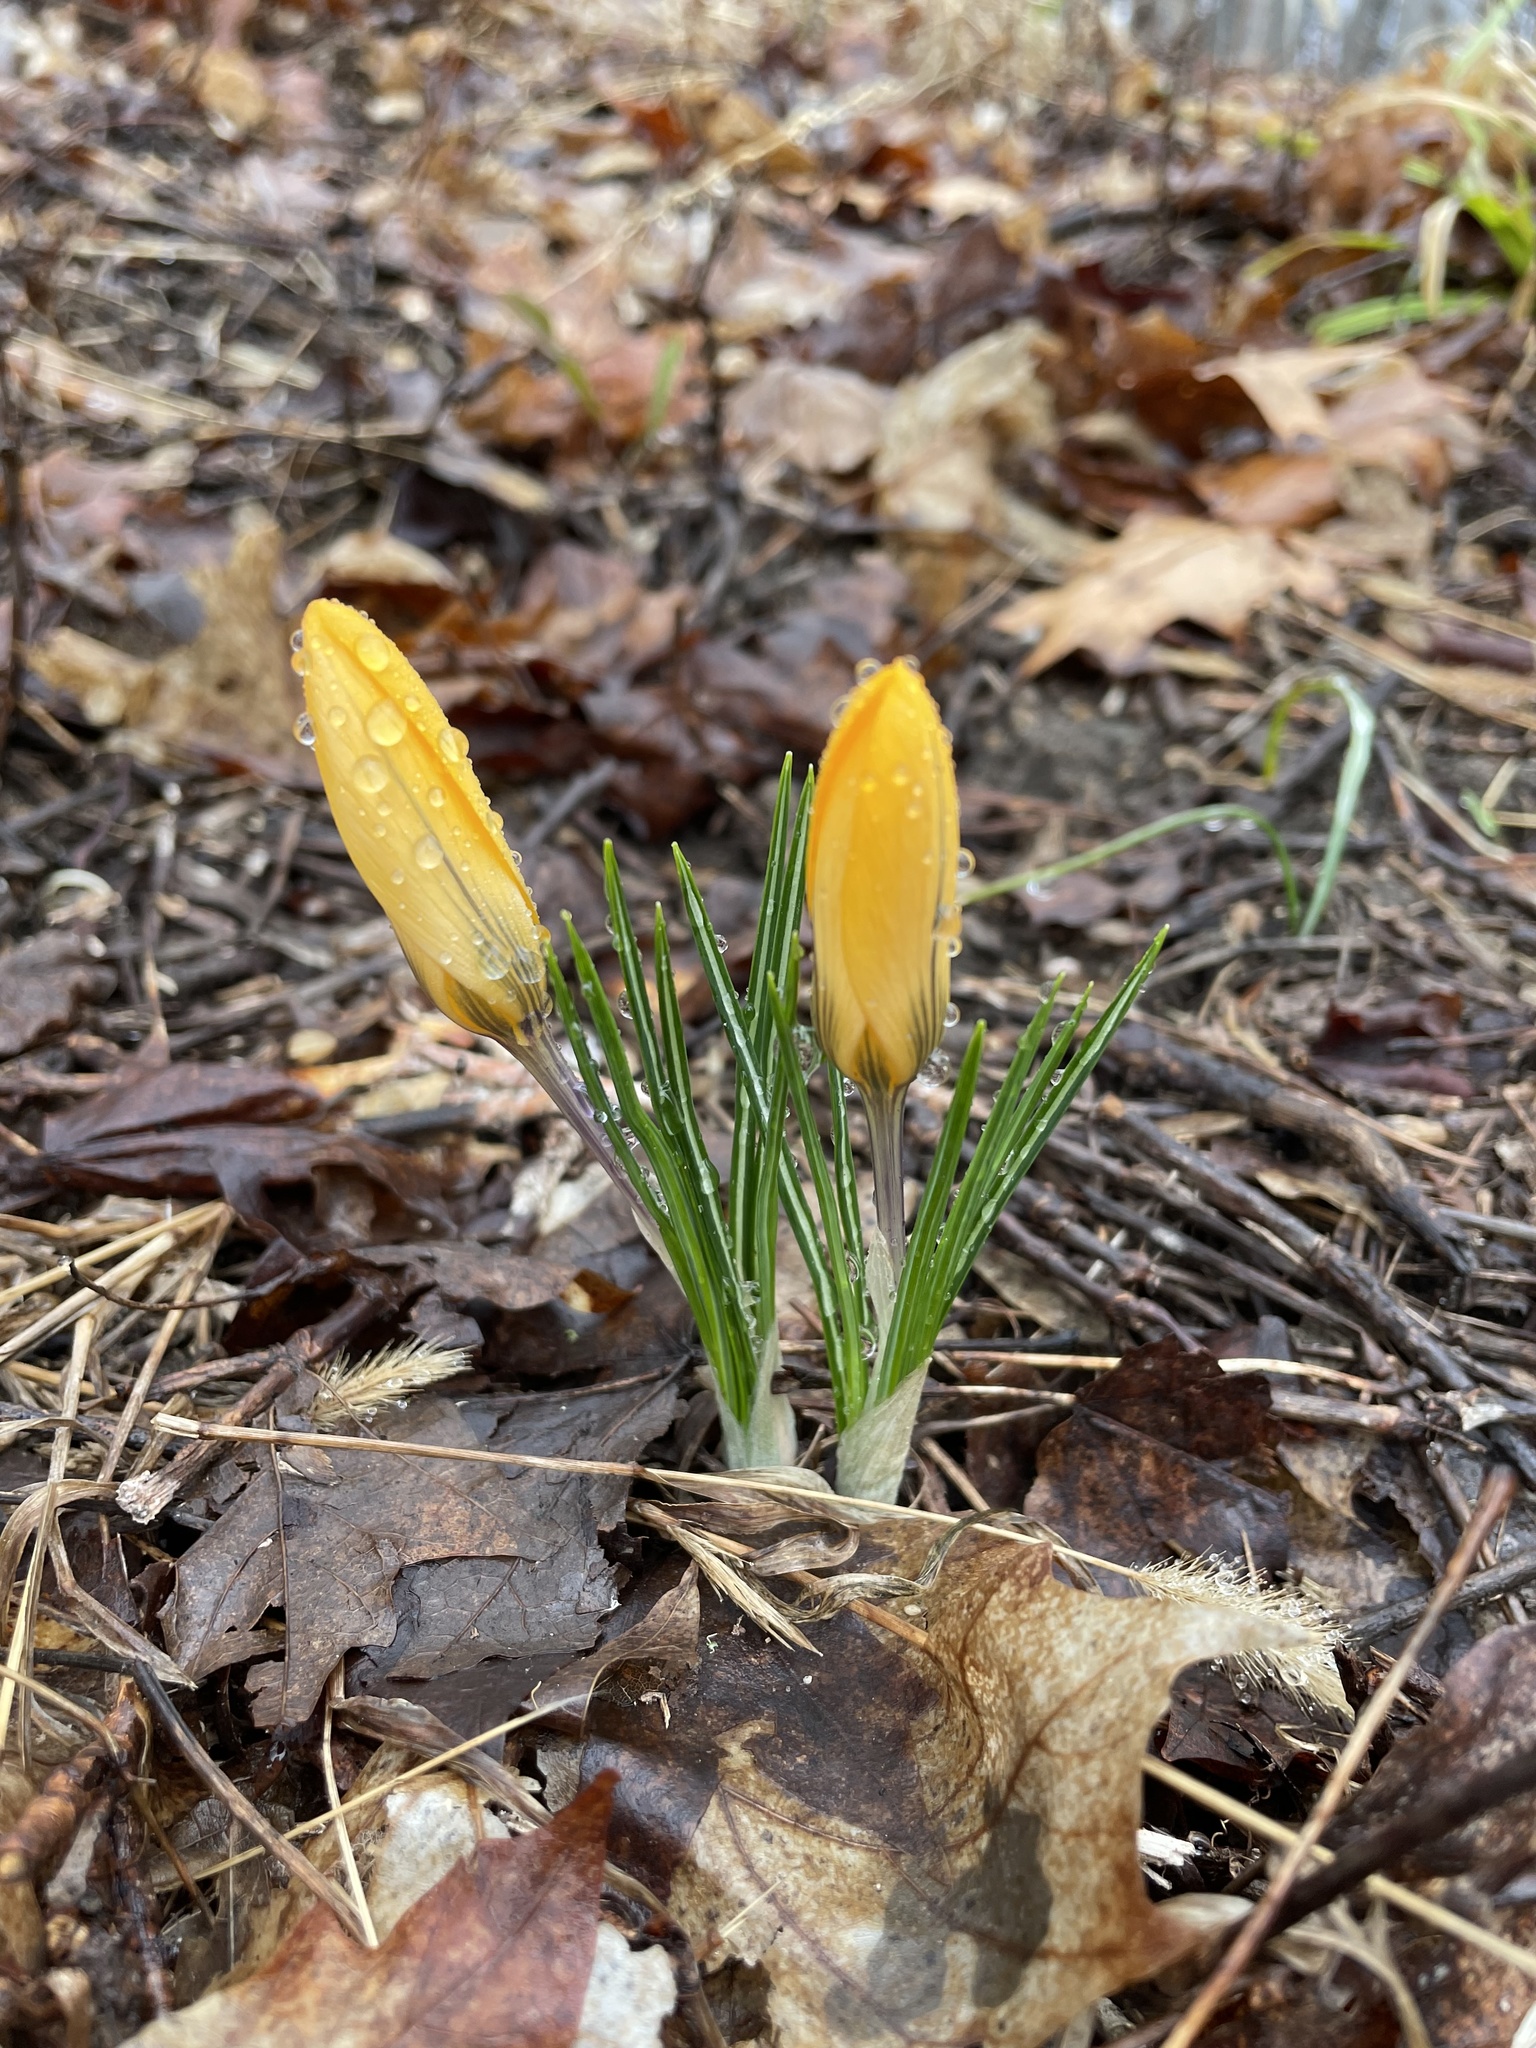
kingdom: Plantae
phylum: Tracheophyta
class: Liliopsida
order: Asparagales
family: Iridaceae
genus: Crocus
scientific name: Crocus luteus
